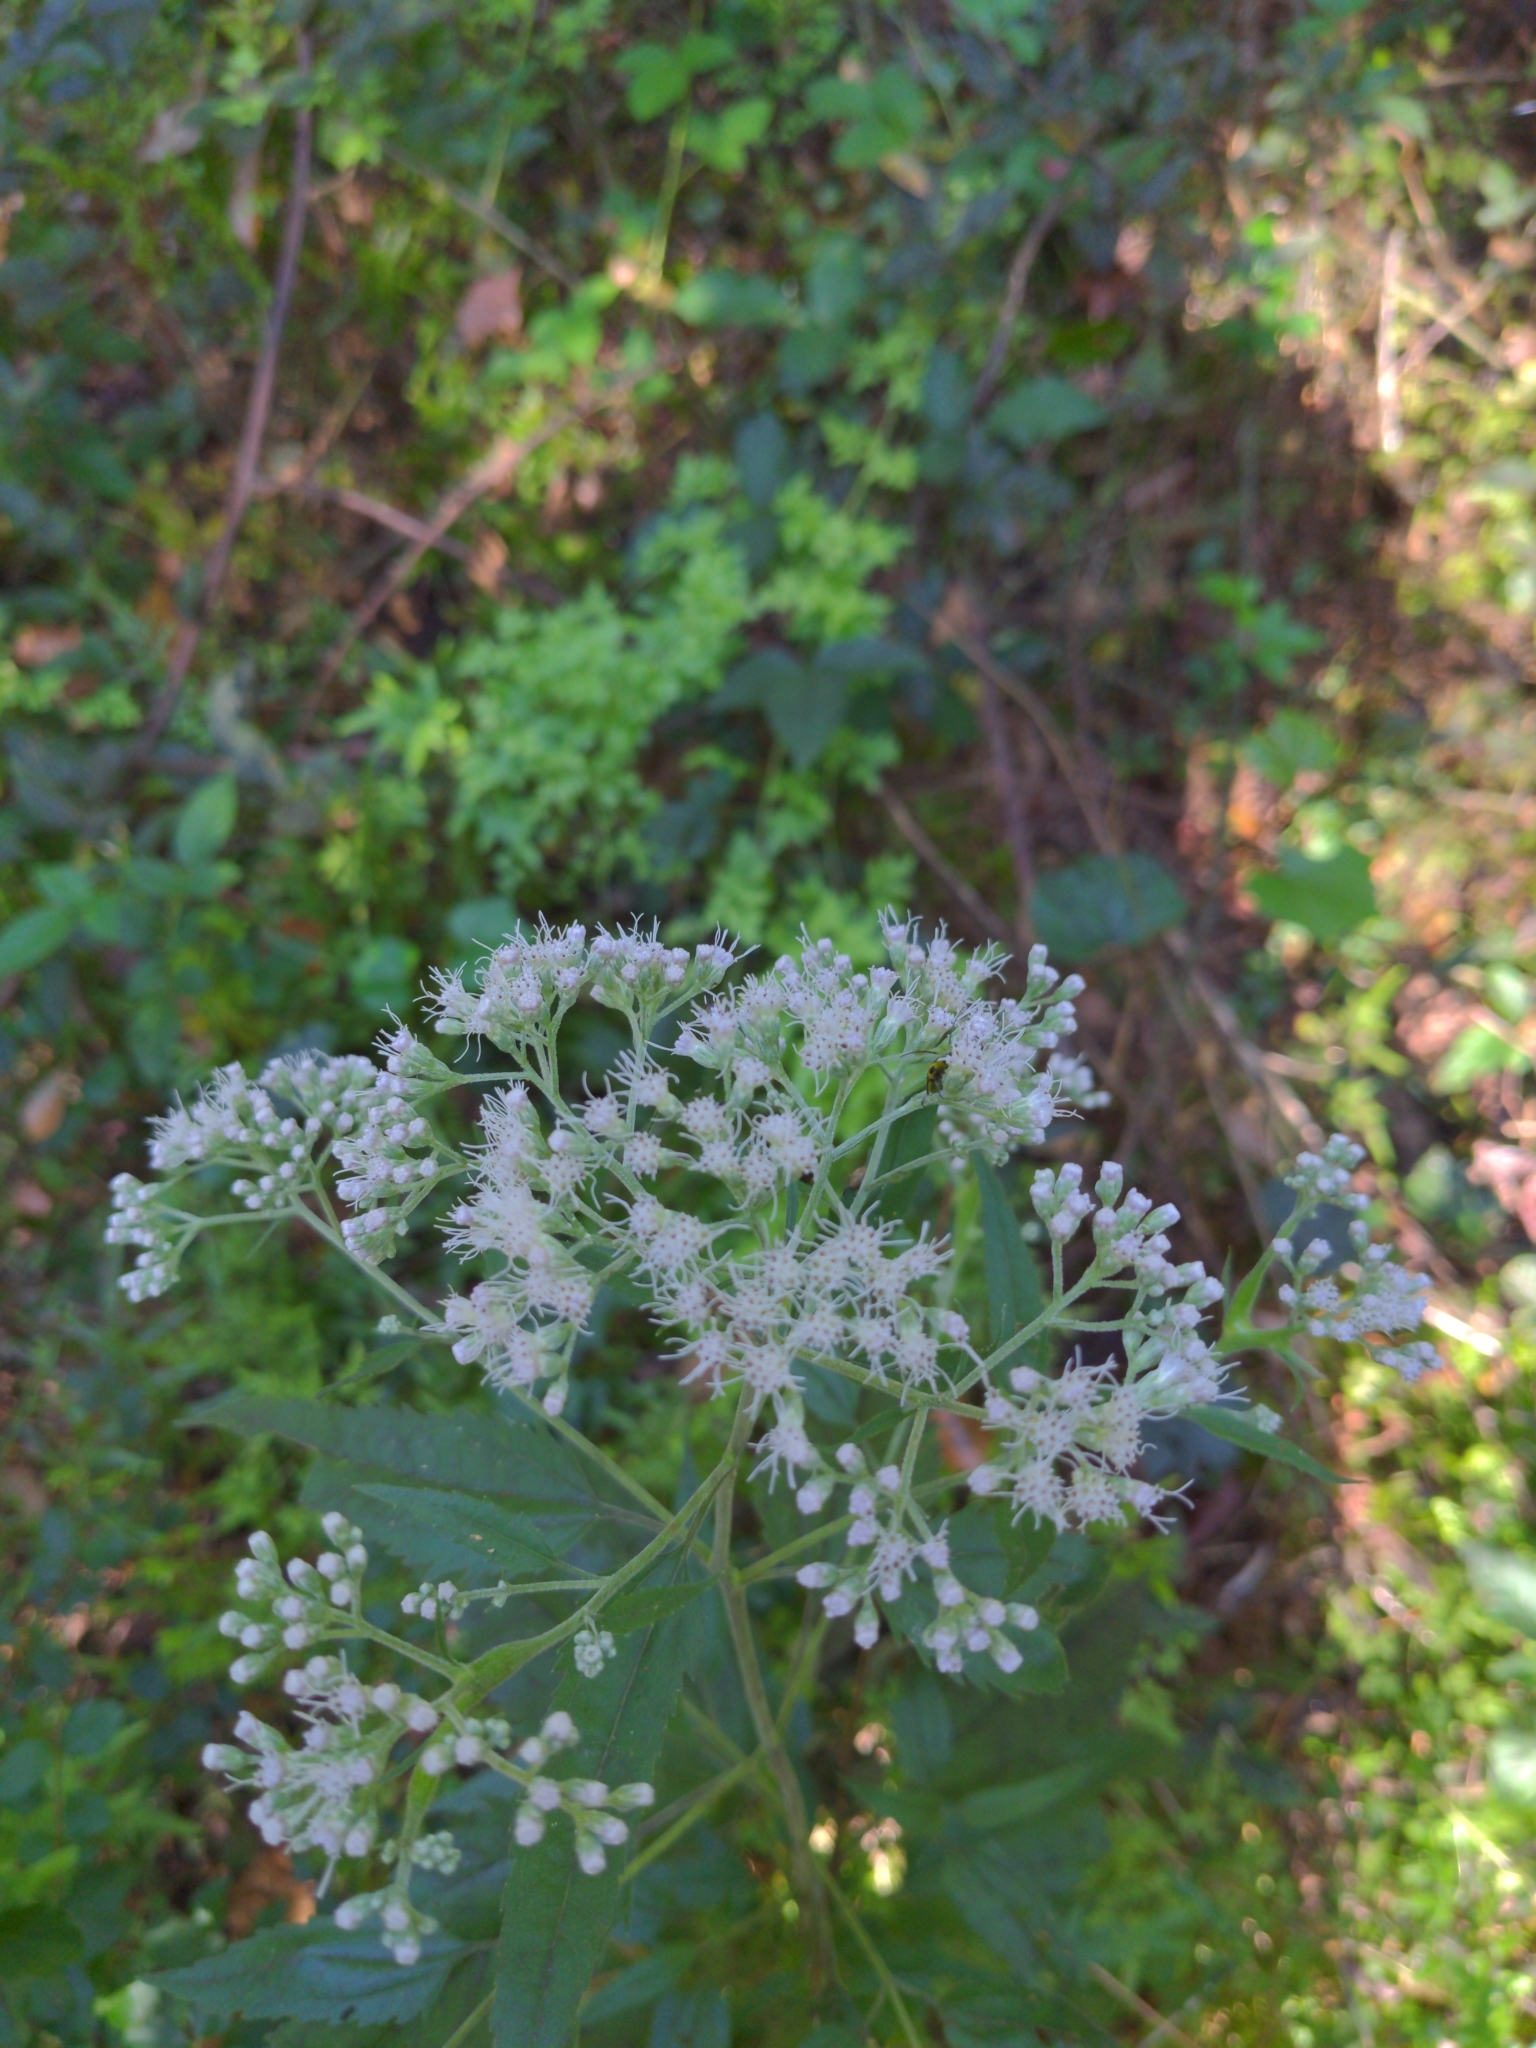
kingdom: Plantae
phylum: Tracheophyta
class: Magnoliopsida
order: Asterales
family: Asteraceae
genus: Eupatorium
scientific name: Eupatorium serotinum
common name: Late boneset
